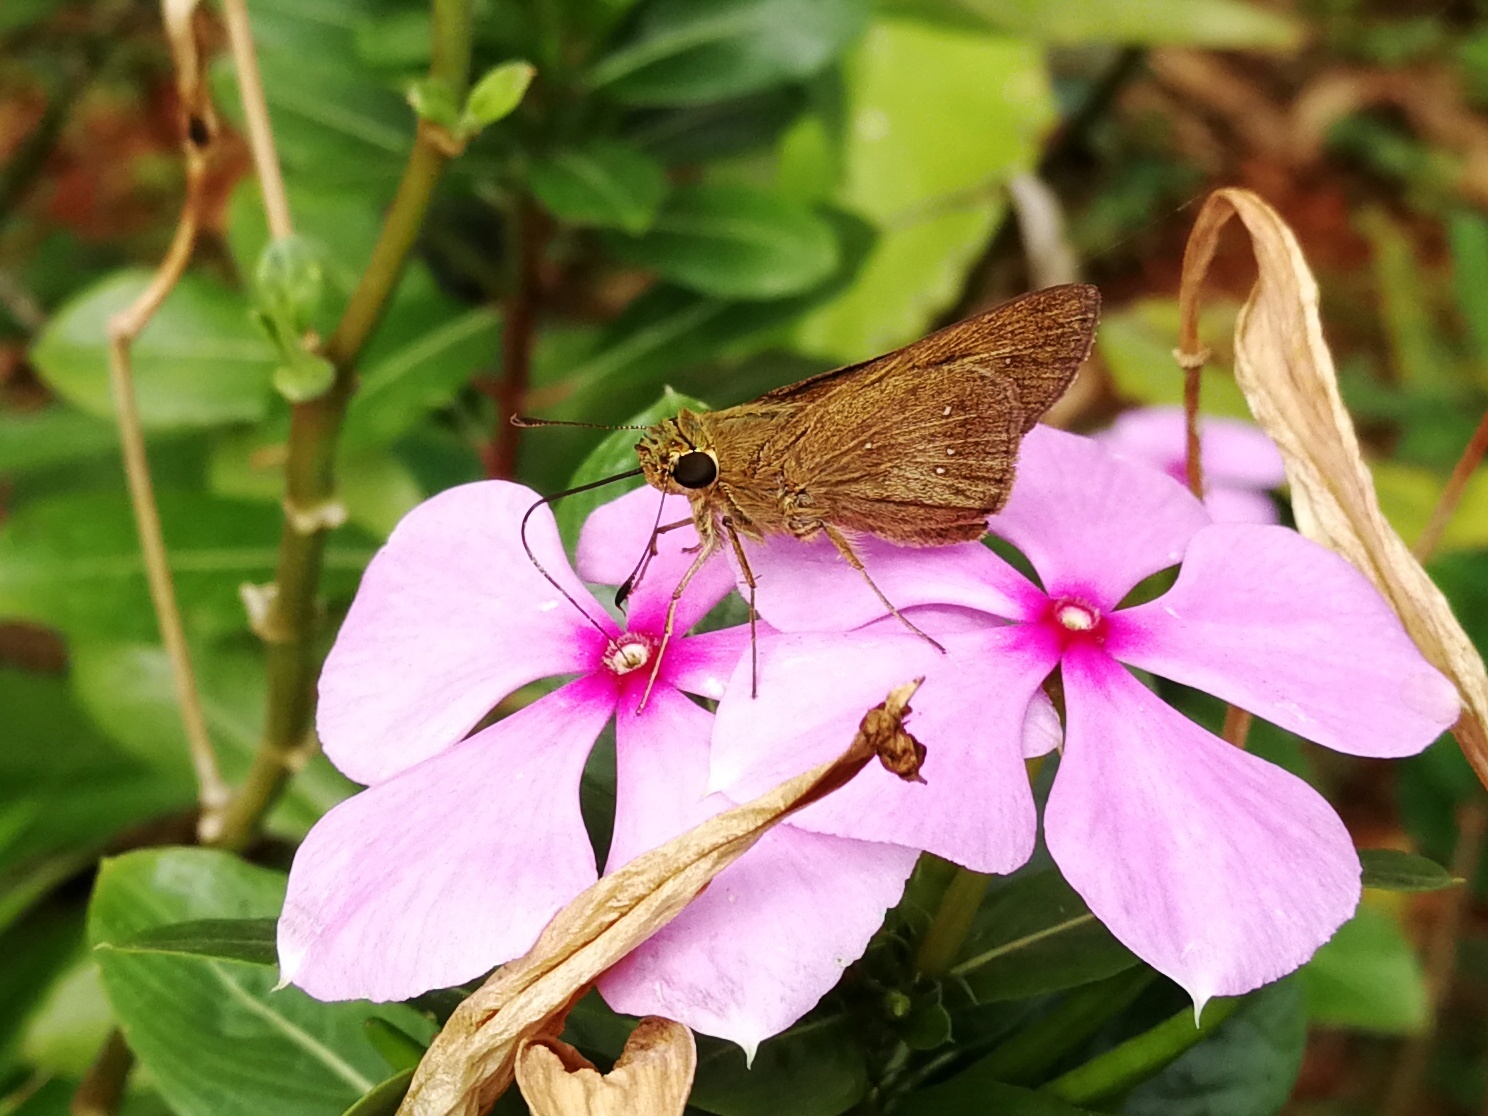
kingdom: Animalia
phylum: Arthropoda
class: Insecta
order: Lepidoptera
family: Hesperiidae
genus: Pelopidas
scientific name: Pelopidas mathias
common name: Black-branded swift
